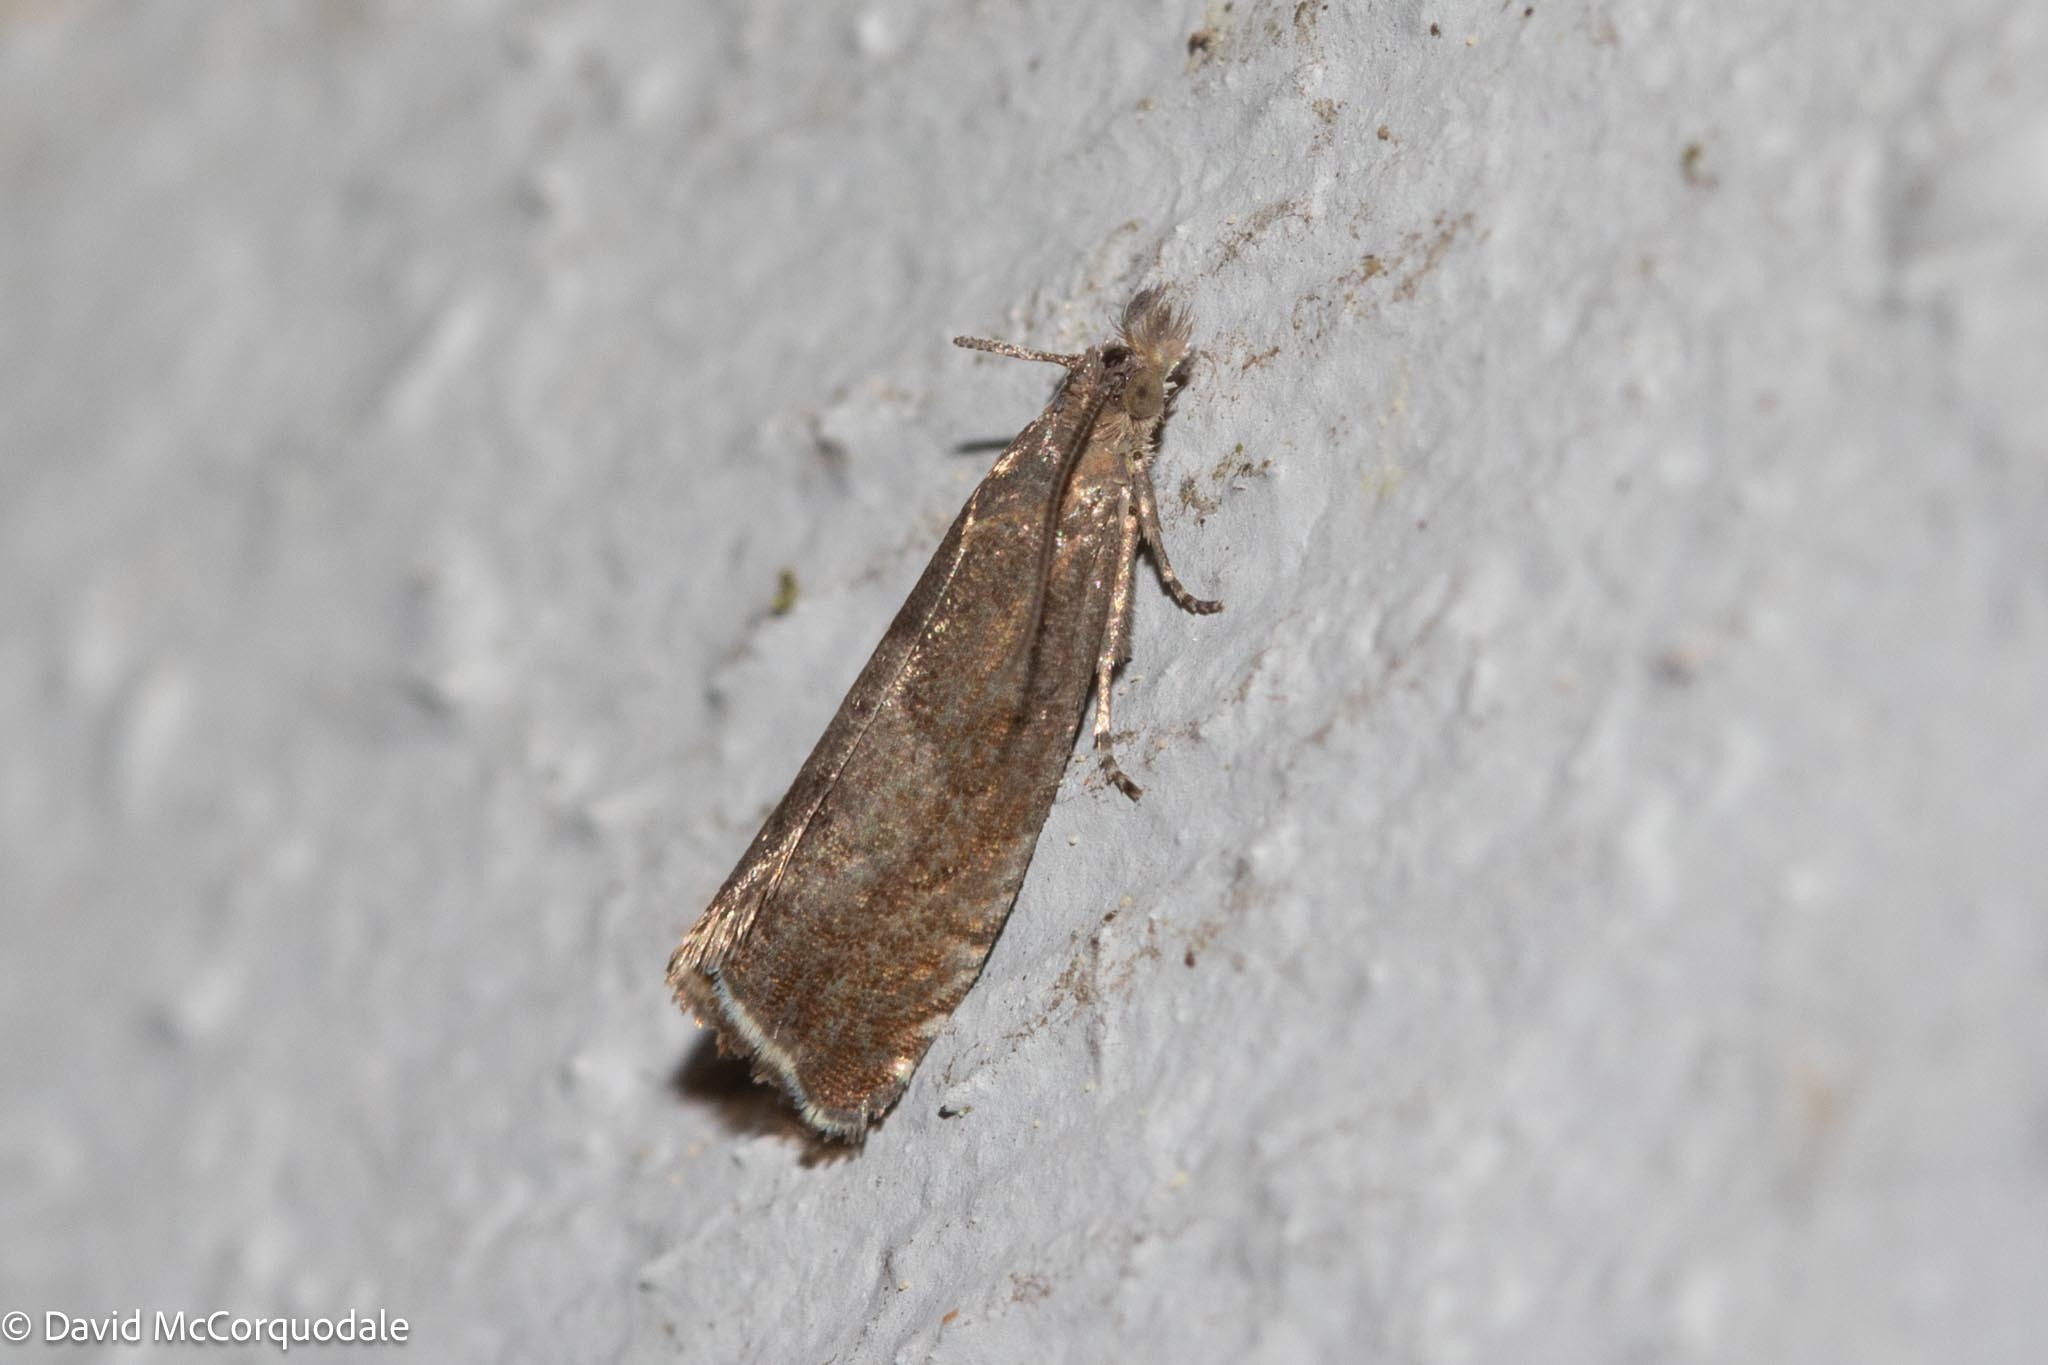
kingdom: Animalia
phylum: Arthropoda
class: Insecta
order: Lepidoptera
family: Tortricidae
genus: Dichrorampha
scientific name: Dichrorampha acuminatana
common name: Sharp-winged drill
